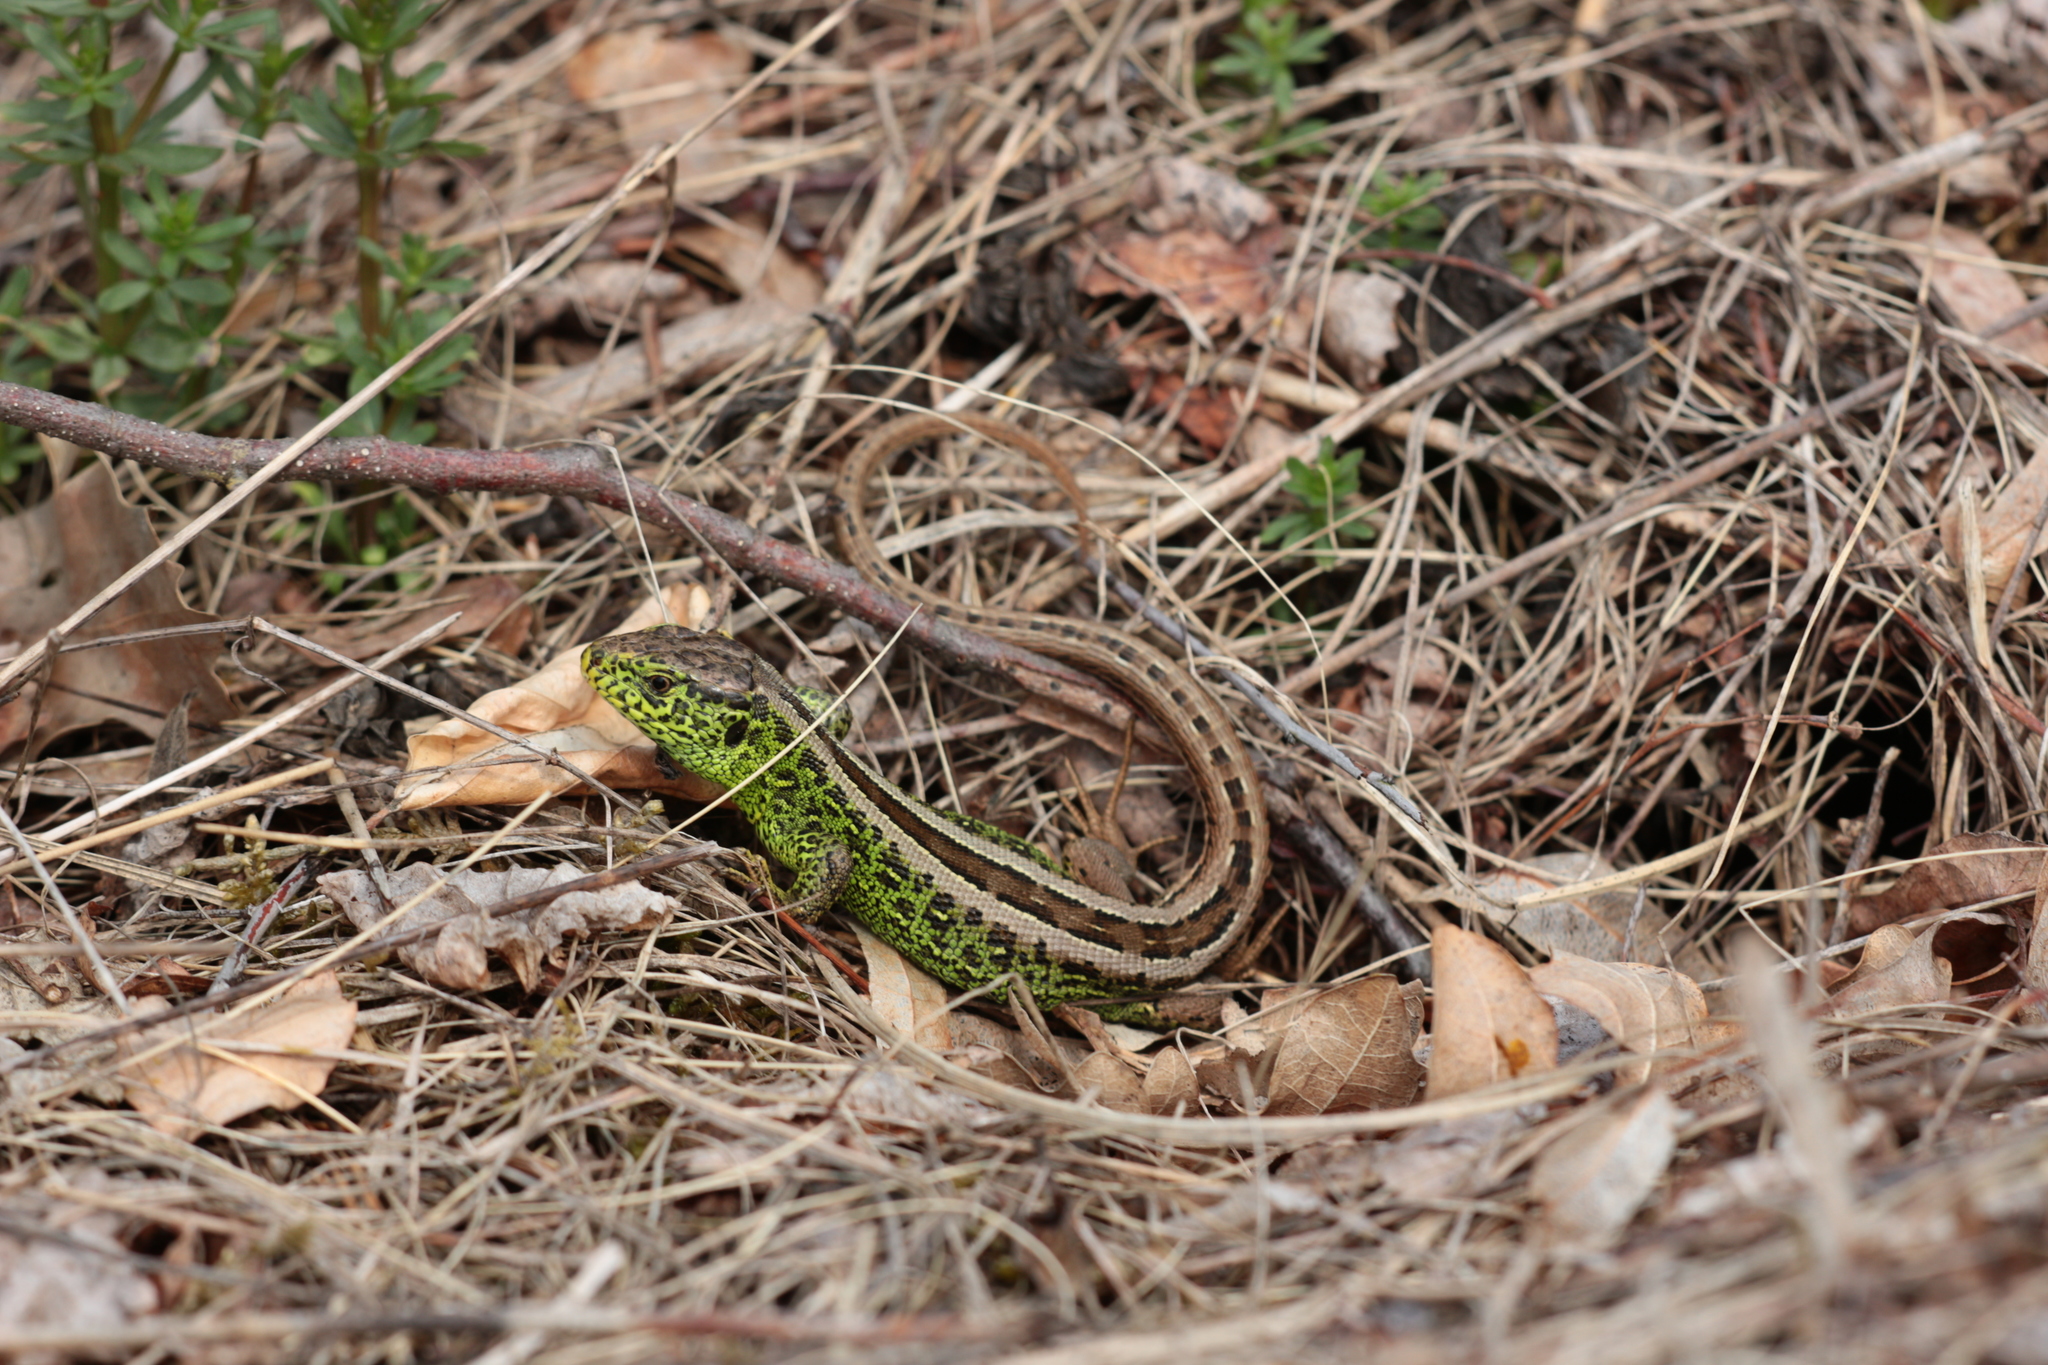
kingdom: Animalia
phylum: Chordata
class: Squamata
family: Lacertidae
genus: Lacerta
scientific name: Lacerta agilis
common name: Sand lizard
